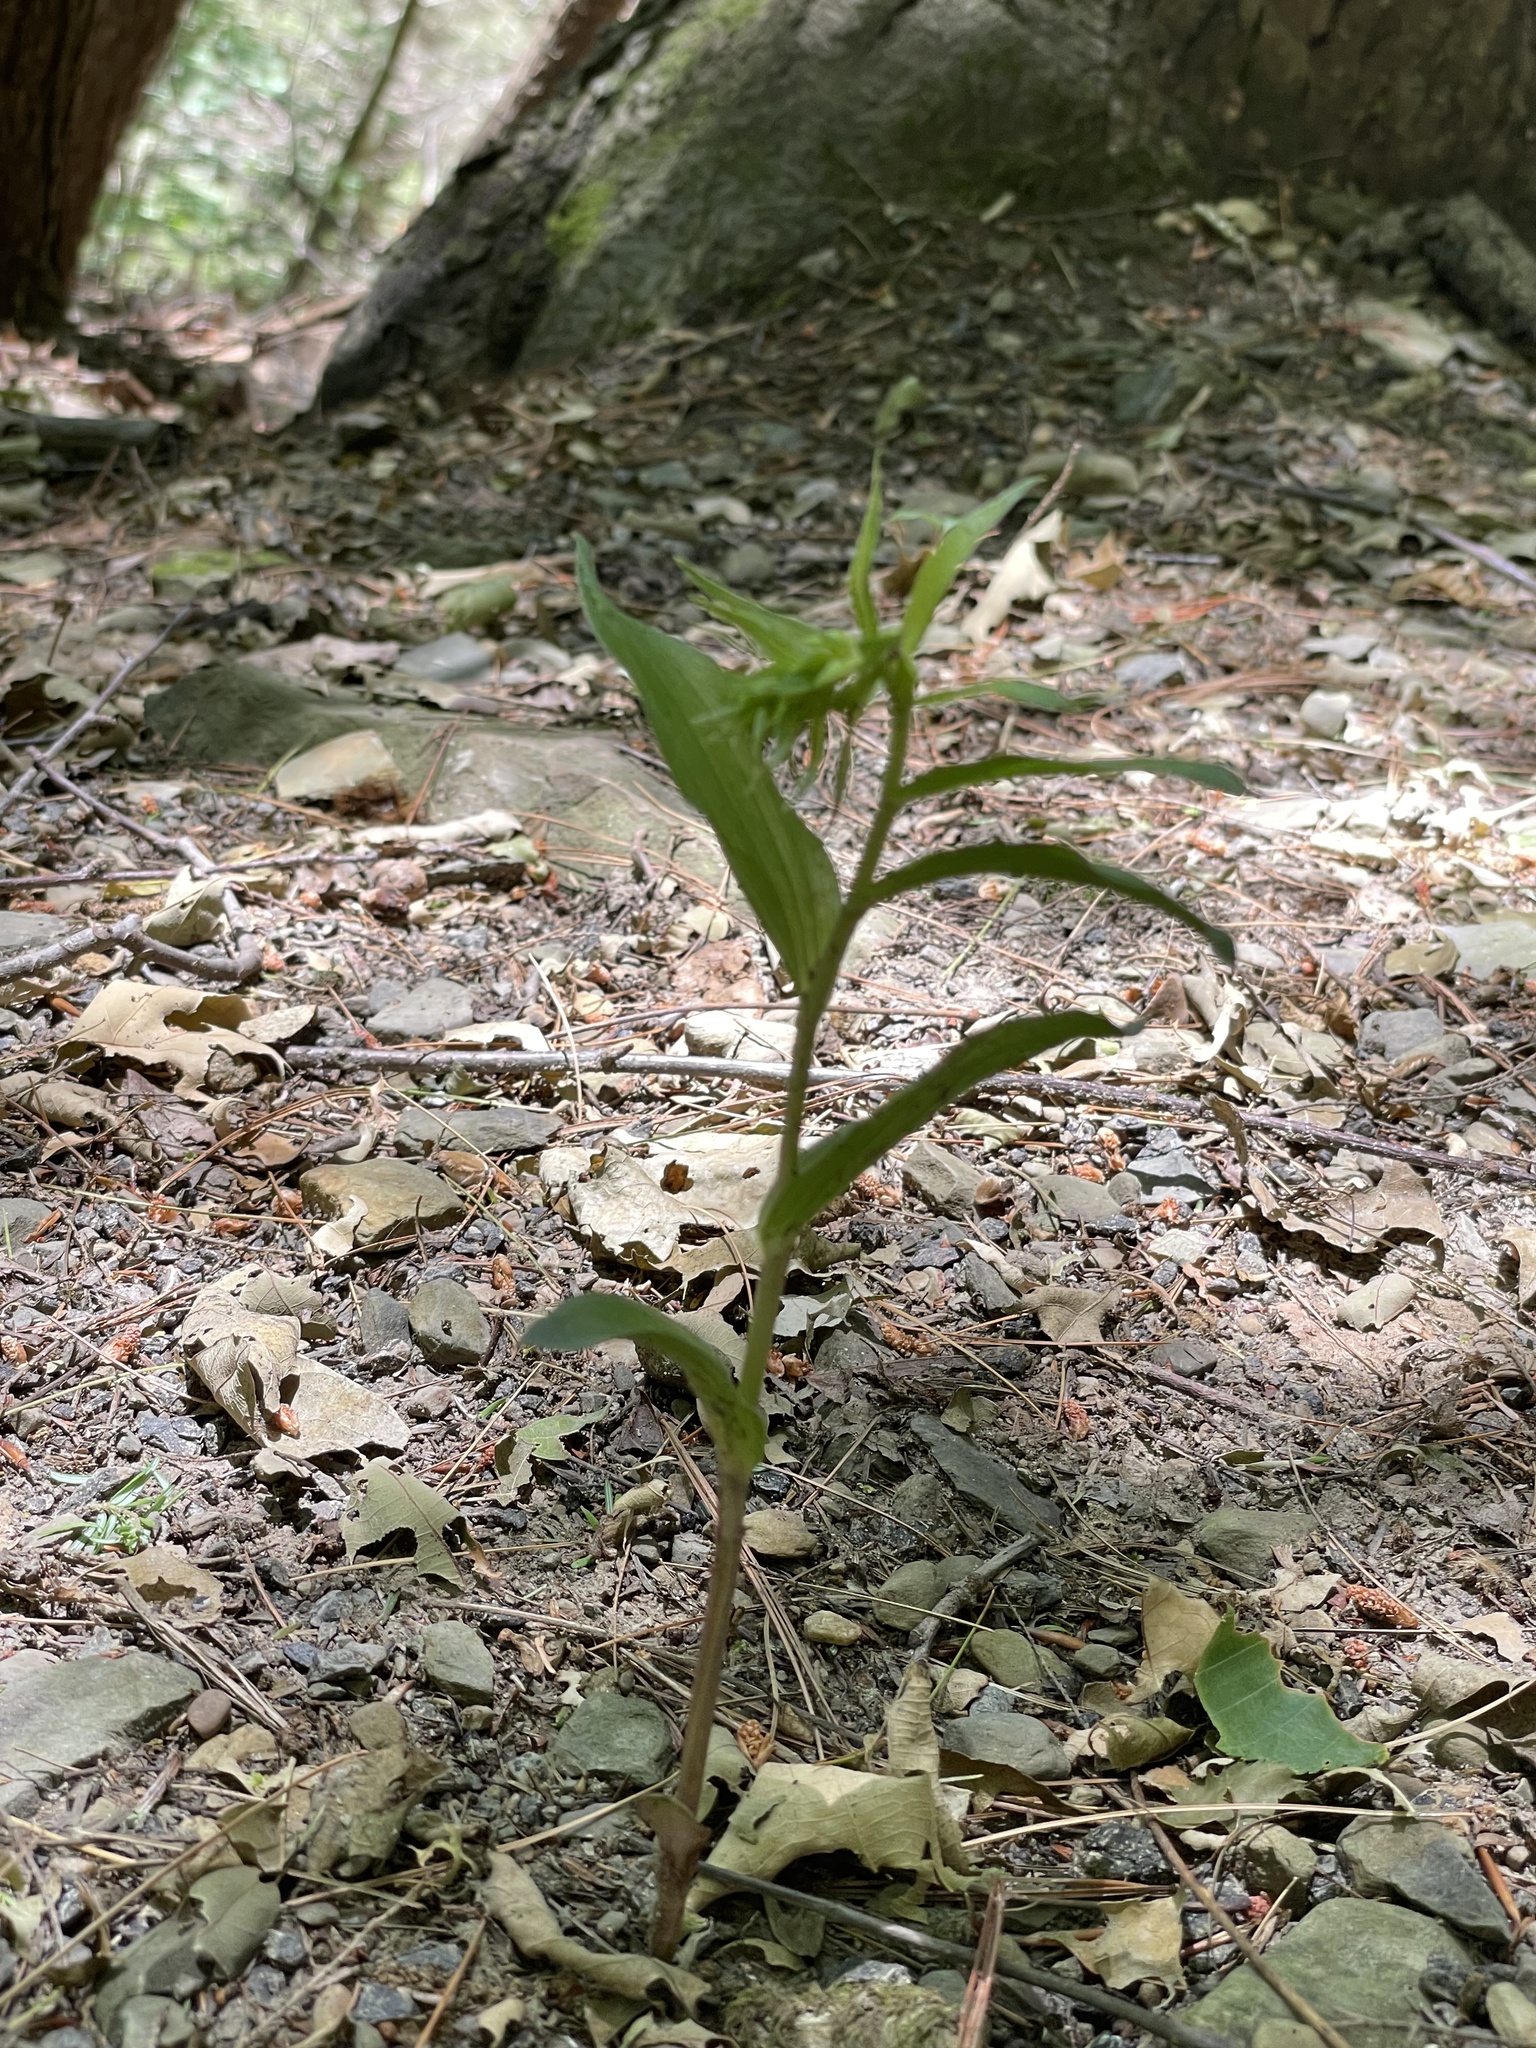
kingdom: Plantae
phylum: Tracheophyta
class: Liliopsida
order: Asparagales
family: Orchidaceae
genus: Epipactis
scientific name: Epipactis helleborine
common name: Broad-leaved helleborine
